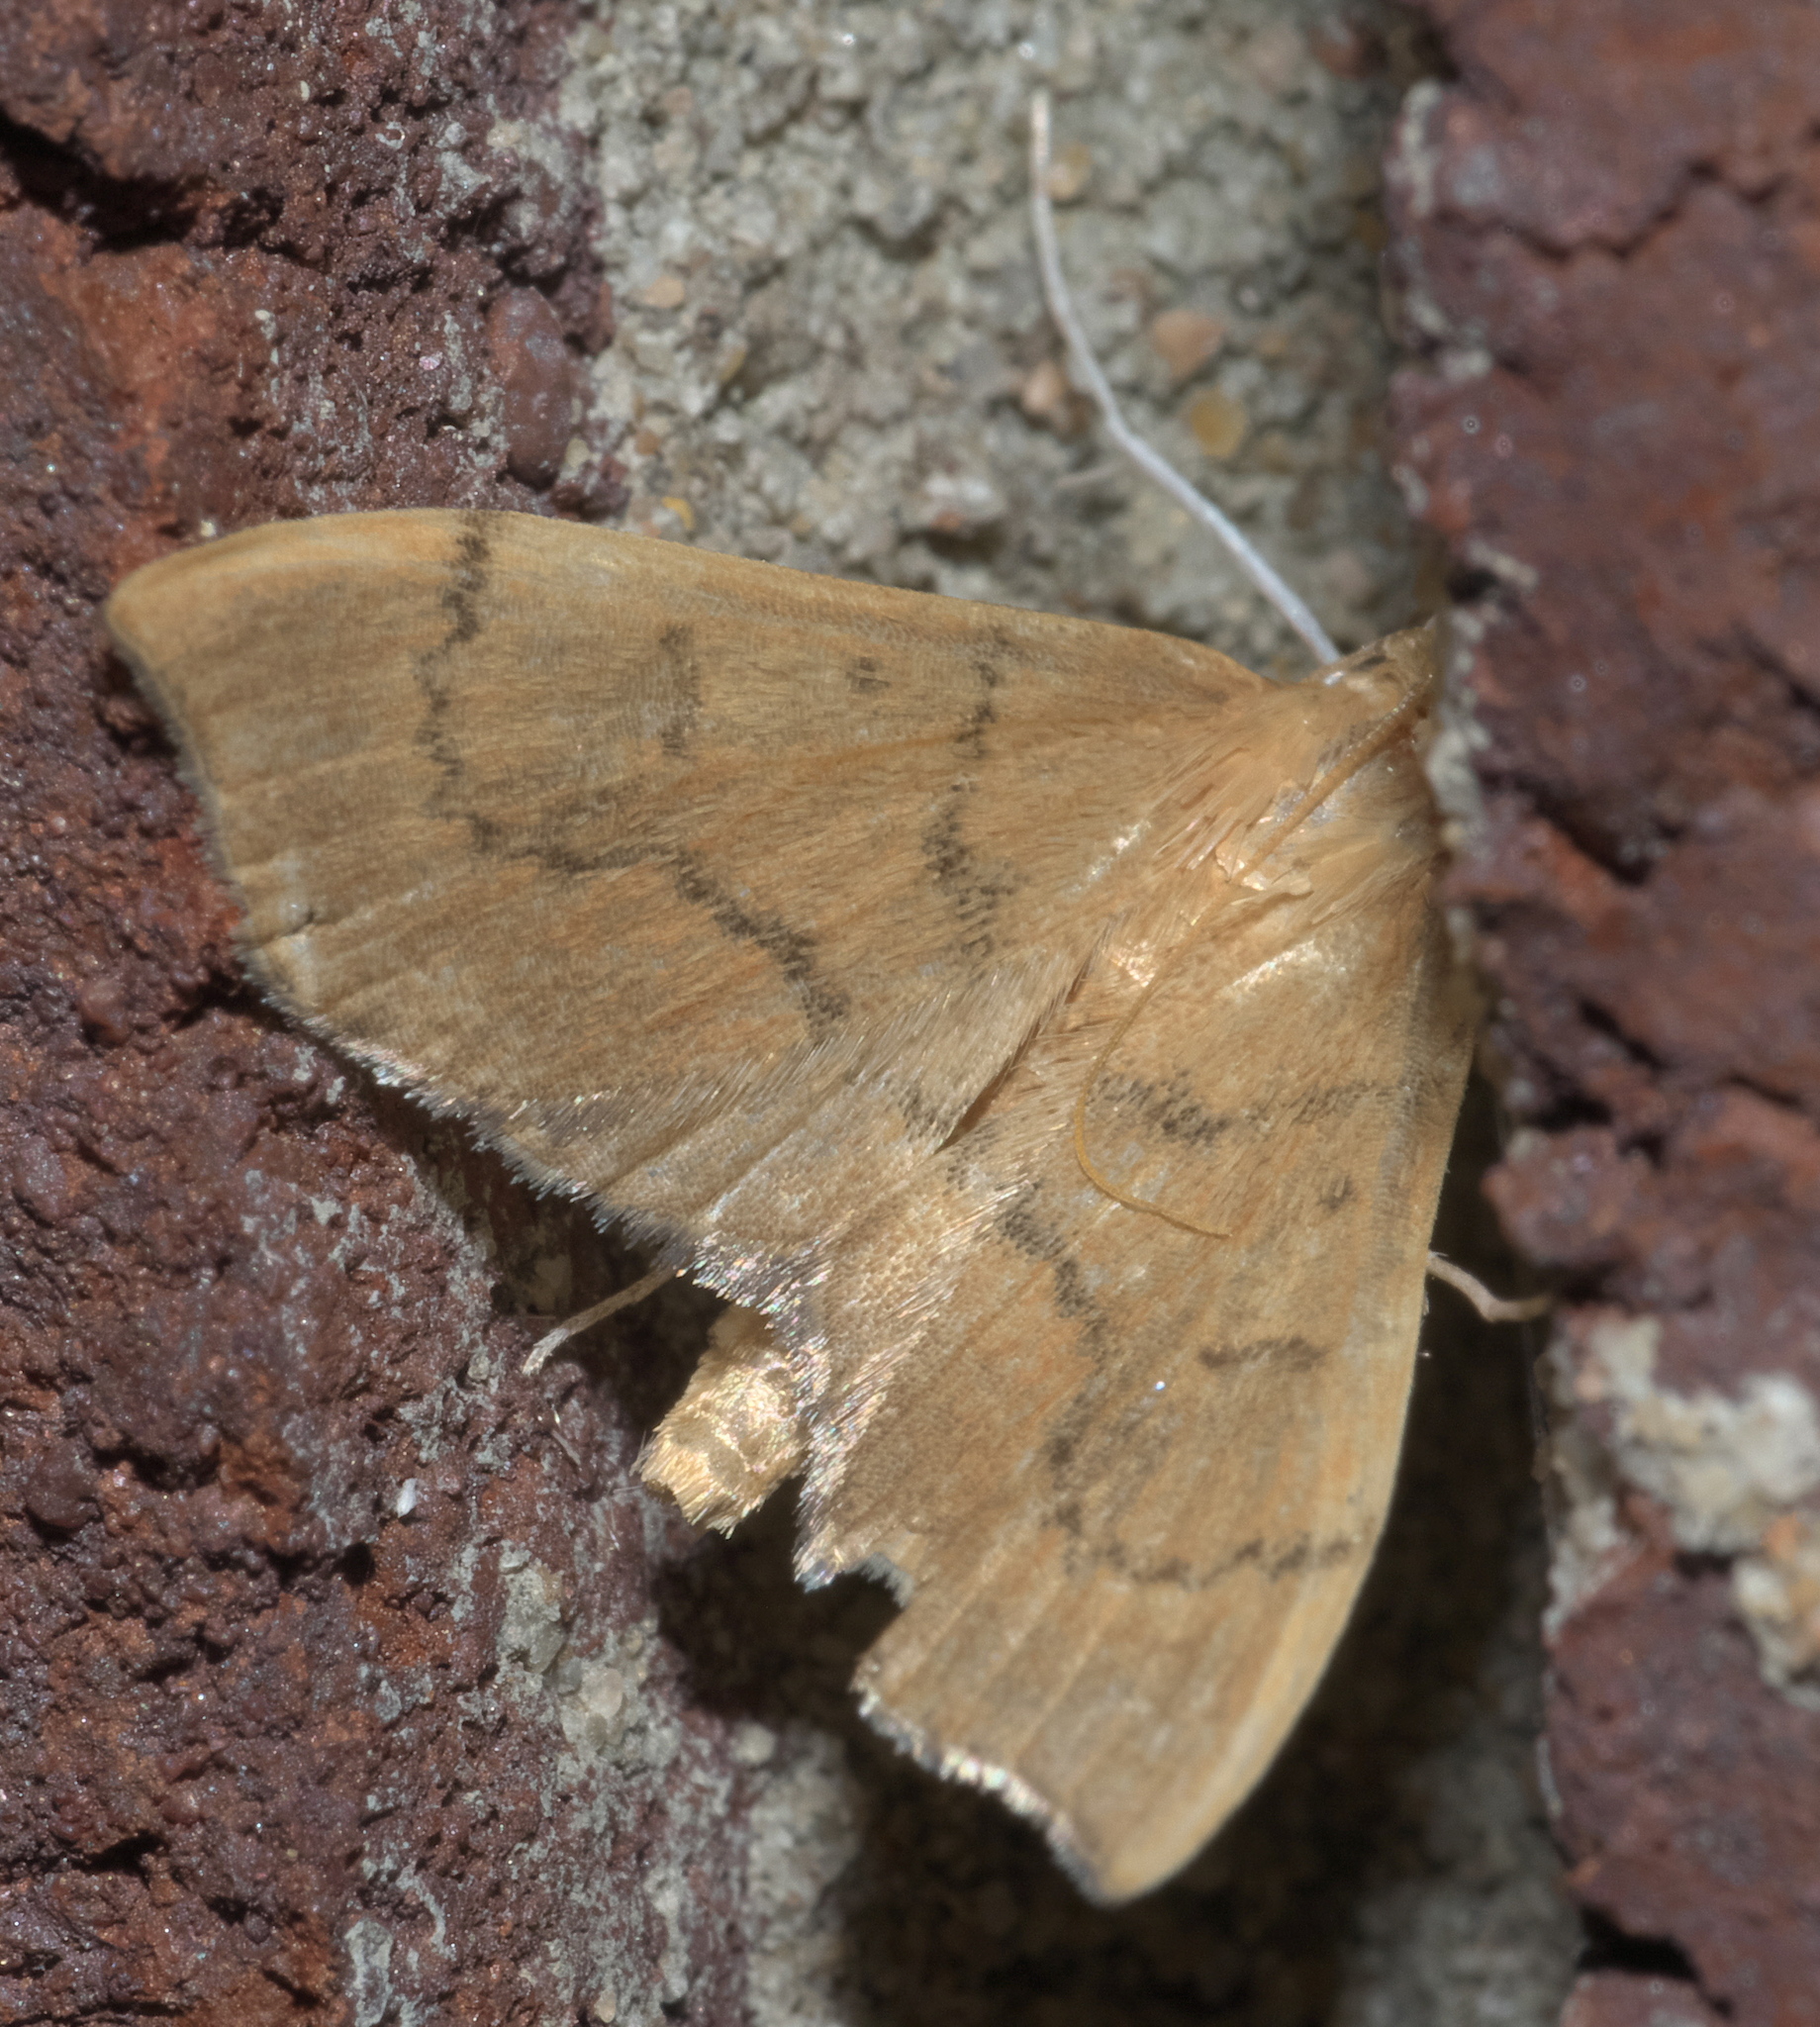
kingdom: Animalia
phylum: Arthropoda
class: Insecta
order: Lepidoptera
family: Crambidae
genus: Sericoplaga
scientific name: Sericoplaga externalis
